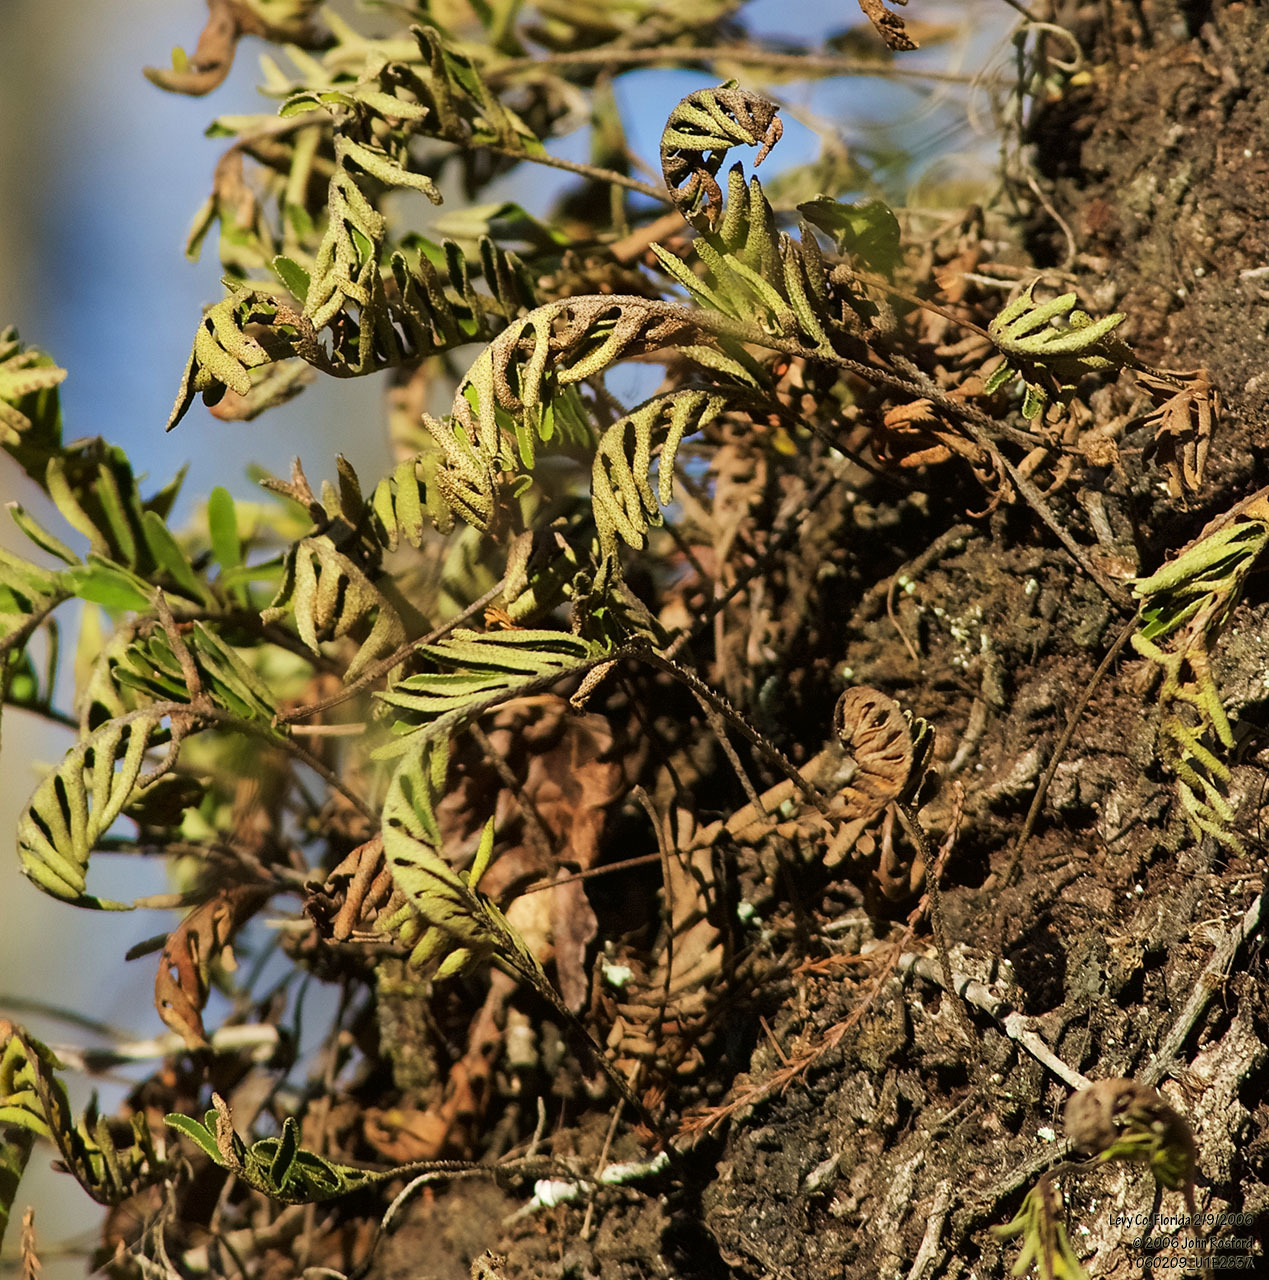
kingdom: Plantae
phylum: Tracheophyta
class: Polypodiopsida
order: Polypodiales
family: Polypodiaceae
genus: Pleopeltis
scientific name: Pleopeltis michauxiana
